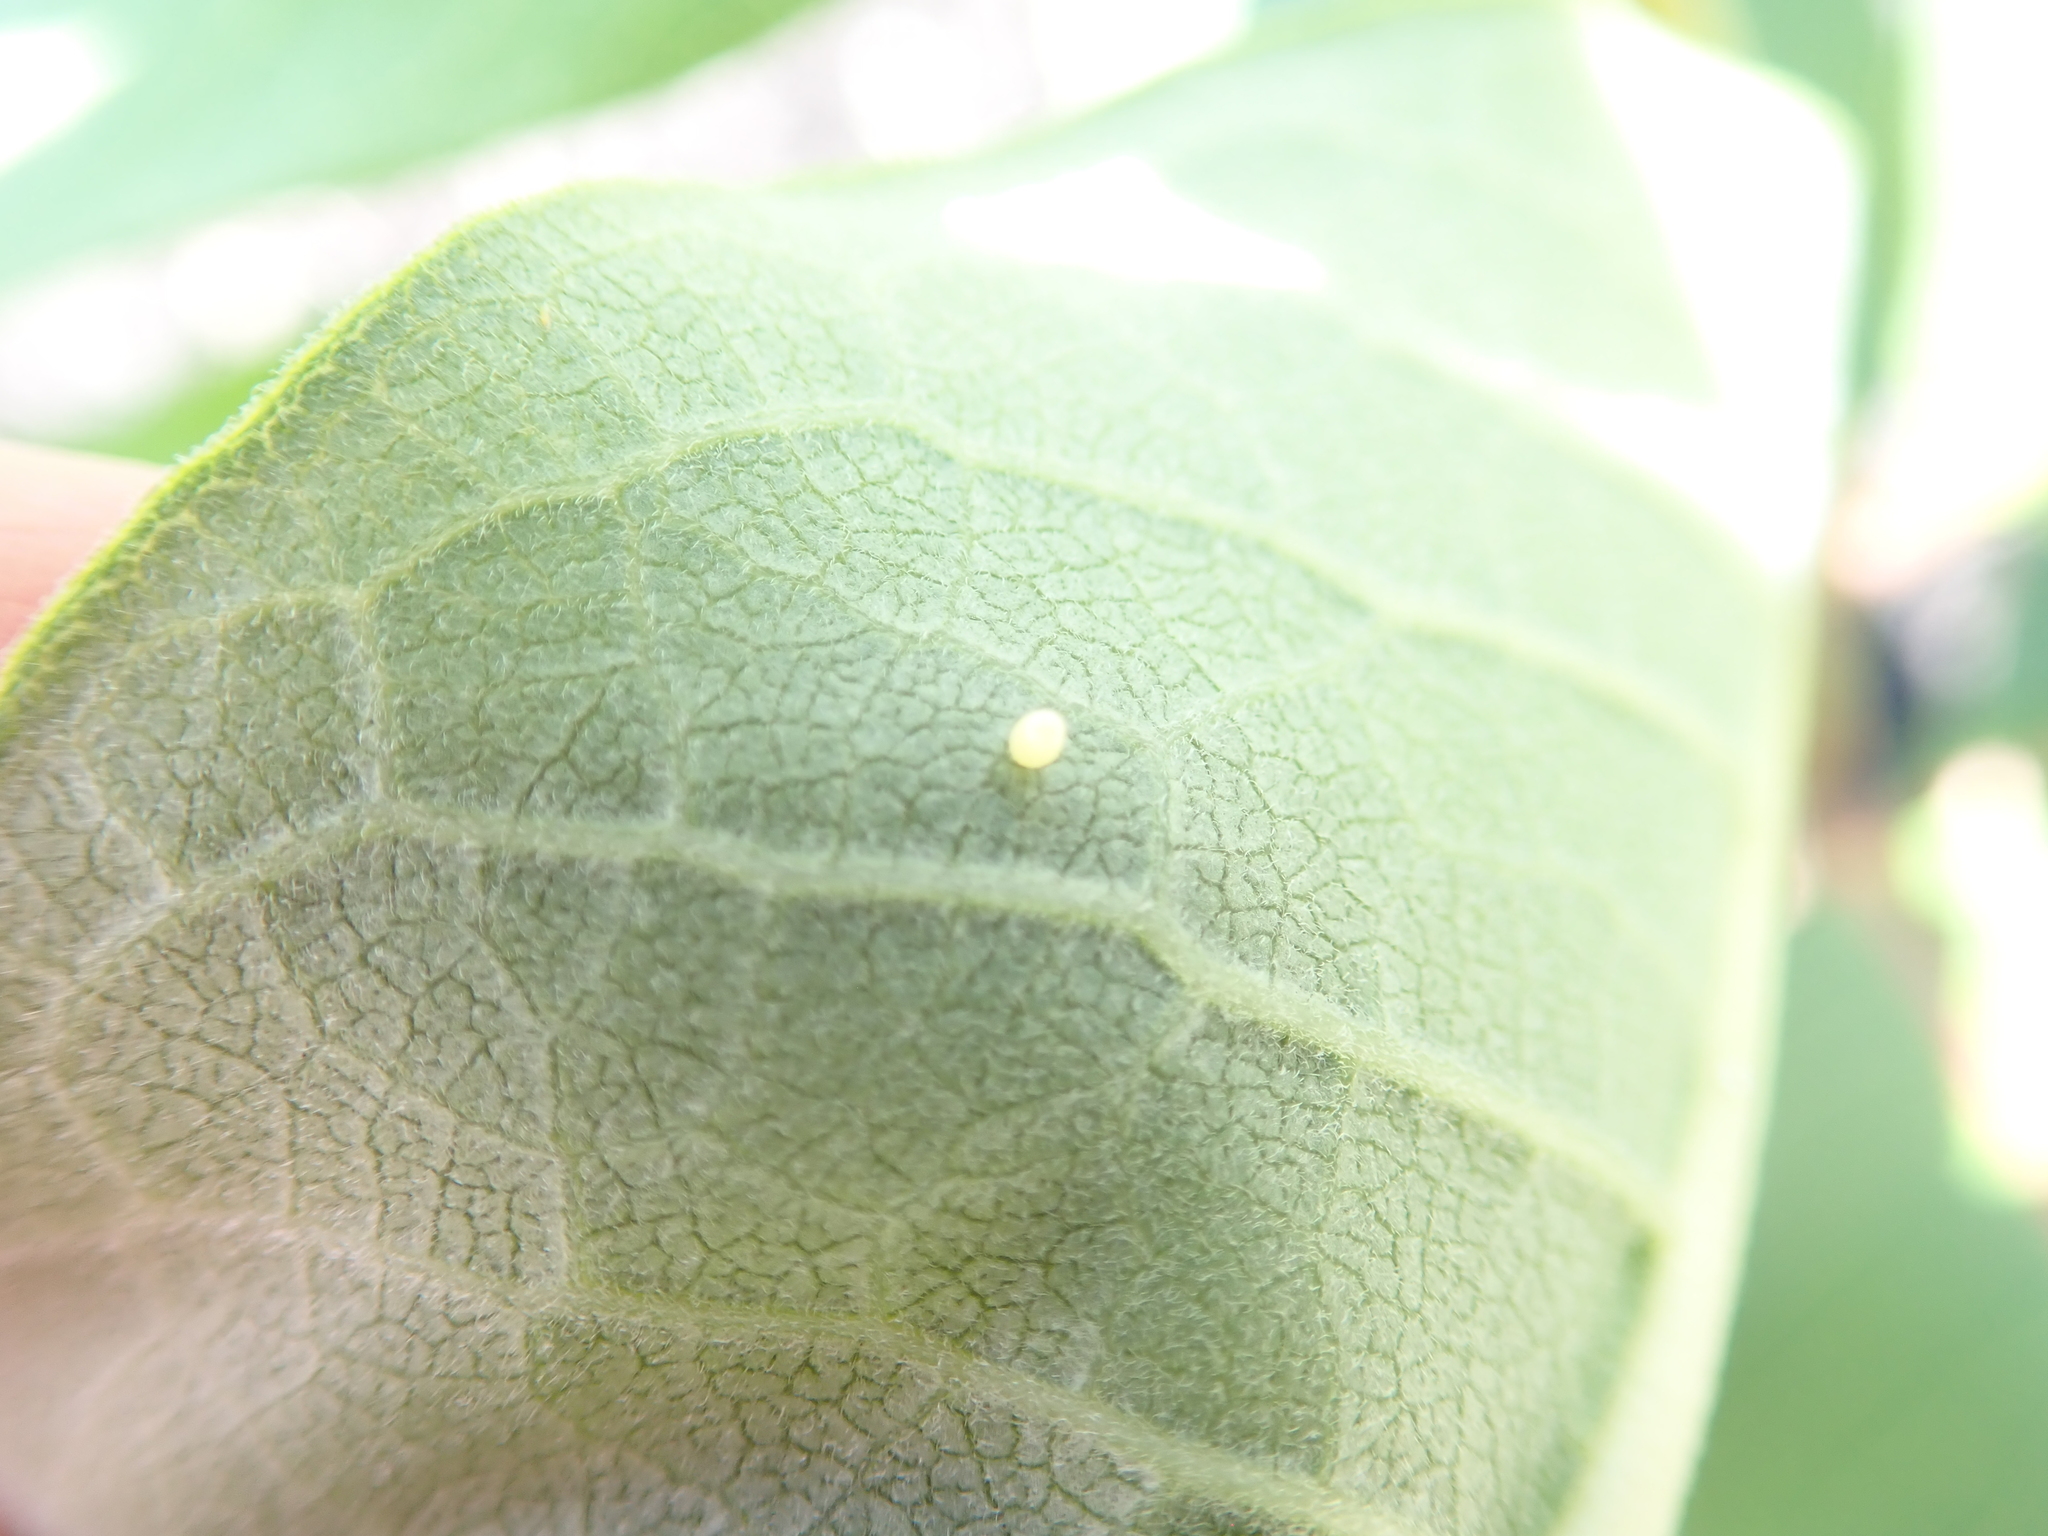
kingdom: Animalia
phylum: Arthropoda
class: Insecta
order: Lepidoptera
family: Nymphalidae
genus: Danaus
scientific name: Danaus plexippus
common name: Monarch
